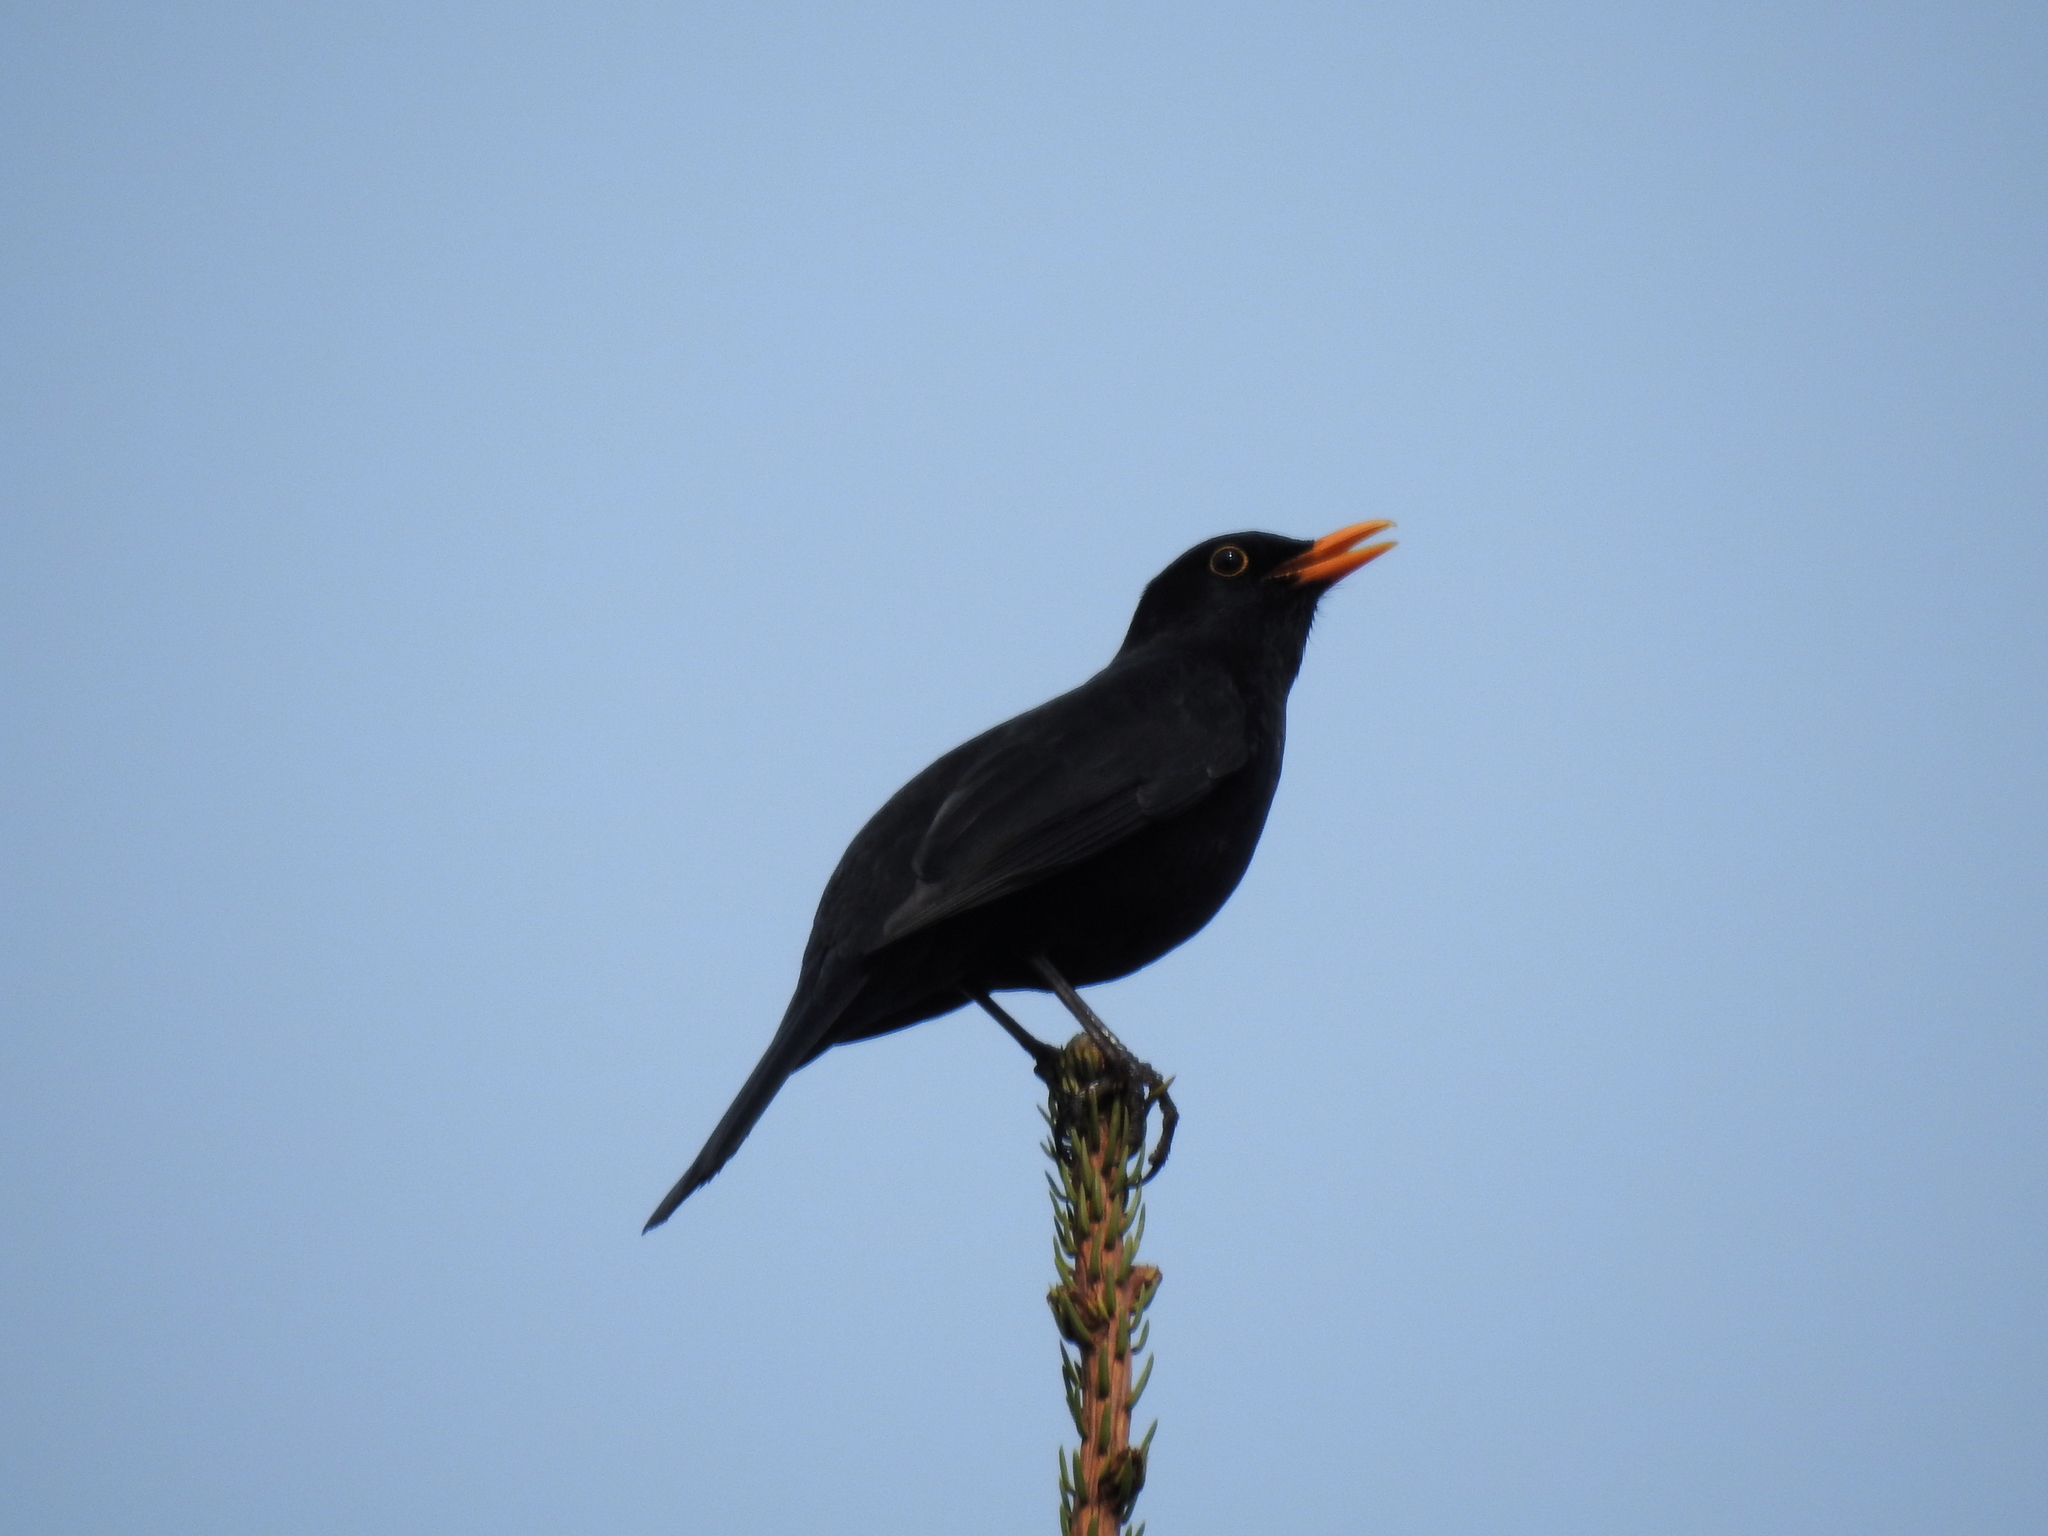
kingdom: Animalia
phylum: Chordata
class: Aves
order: Passeriformes
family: Turdidae
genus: Turdus
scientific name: Turdus merula
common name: Common blackbird
